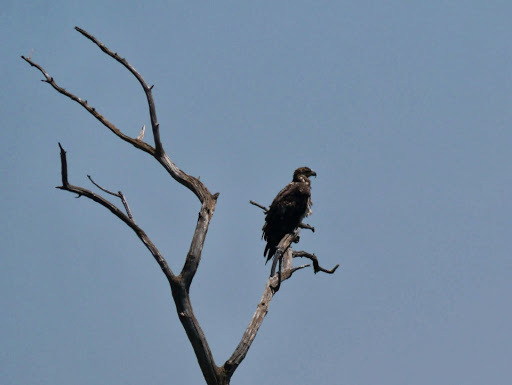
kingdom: Animalia
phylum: Chordata
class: Aves
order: Accipitriformes
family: Accipitridae
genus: Haliaeetus
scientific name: Haliaeetus leucocephalus
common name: Bald eagle
